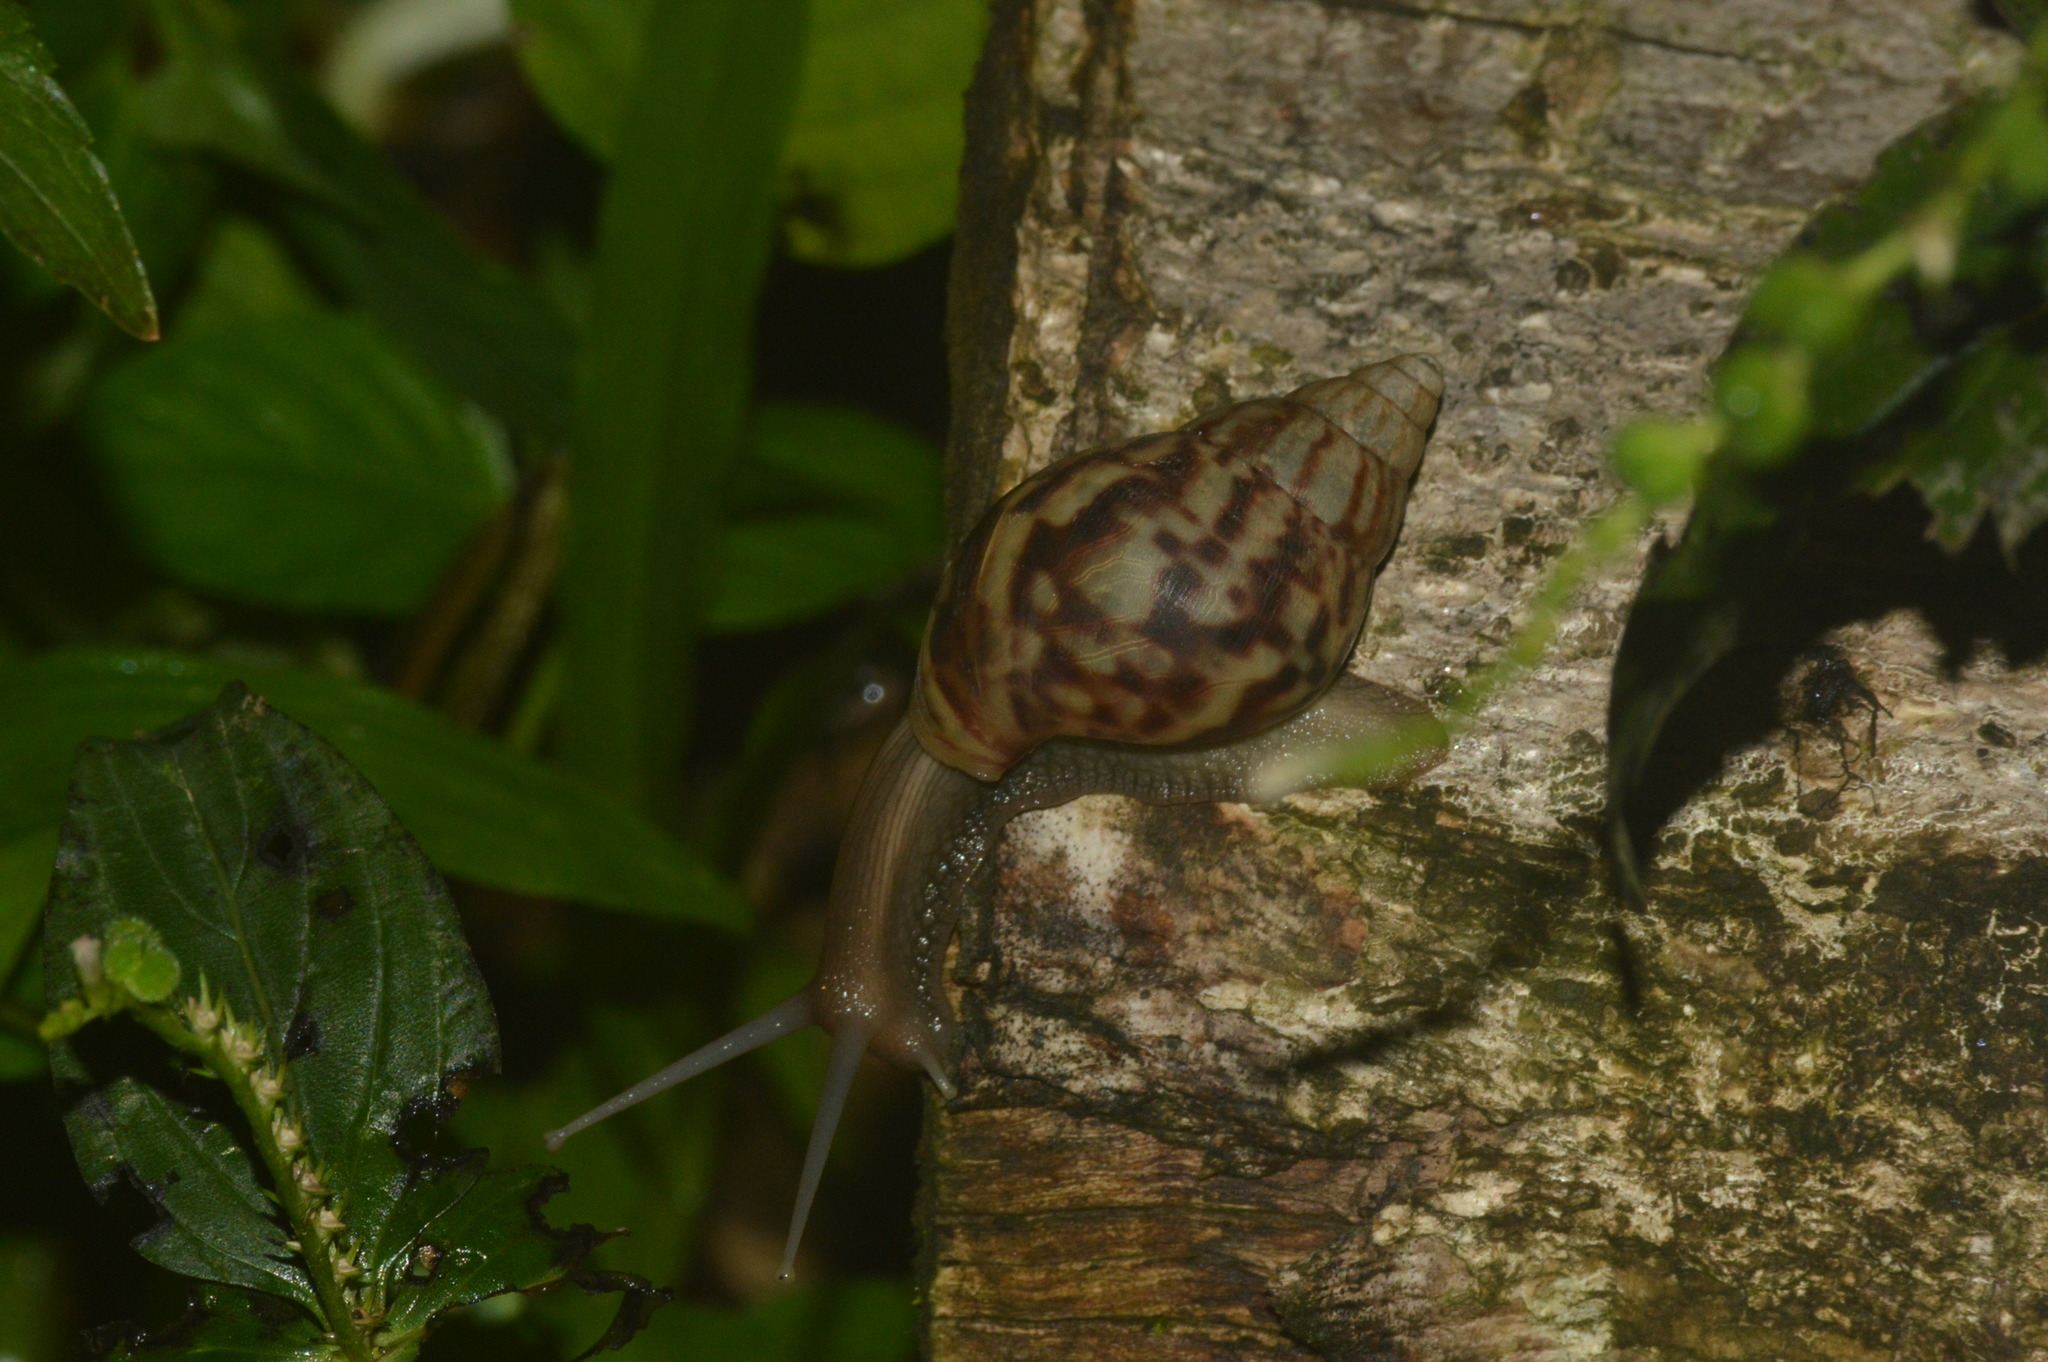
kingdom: Animalia
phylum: Mollusca
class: Gastropoda
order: Stylommatophora
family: Achatinidae
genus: Lissachatina
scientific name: Lissachatina fulica
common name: Giant african snail
